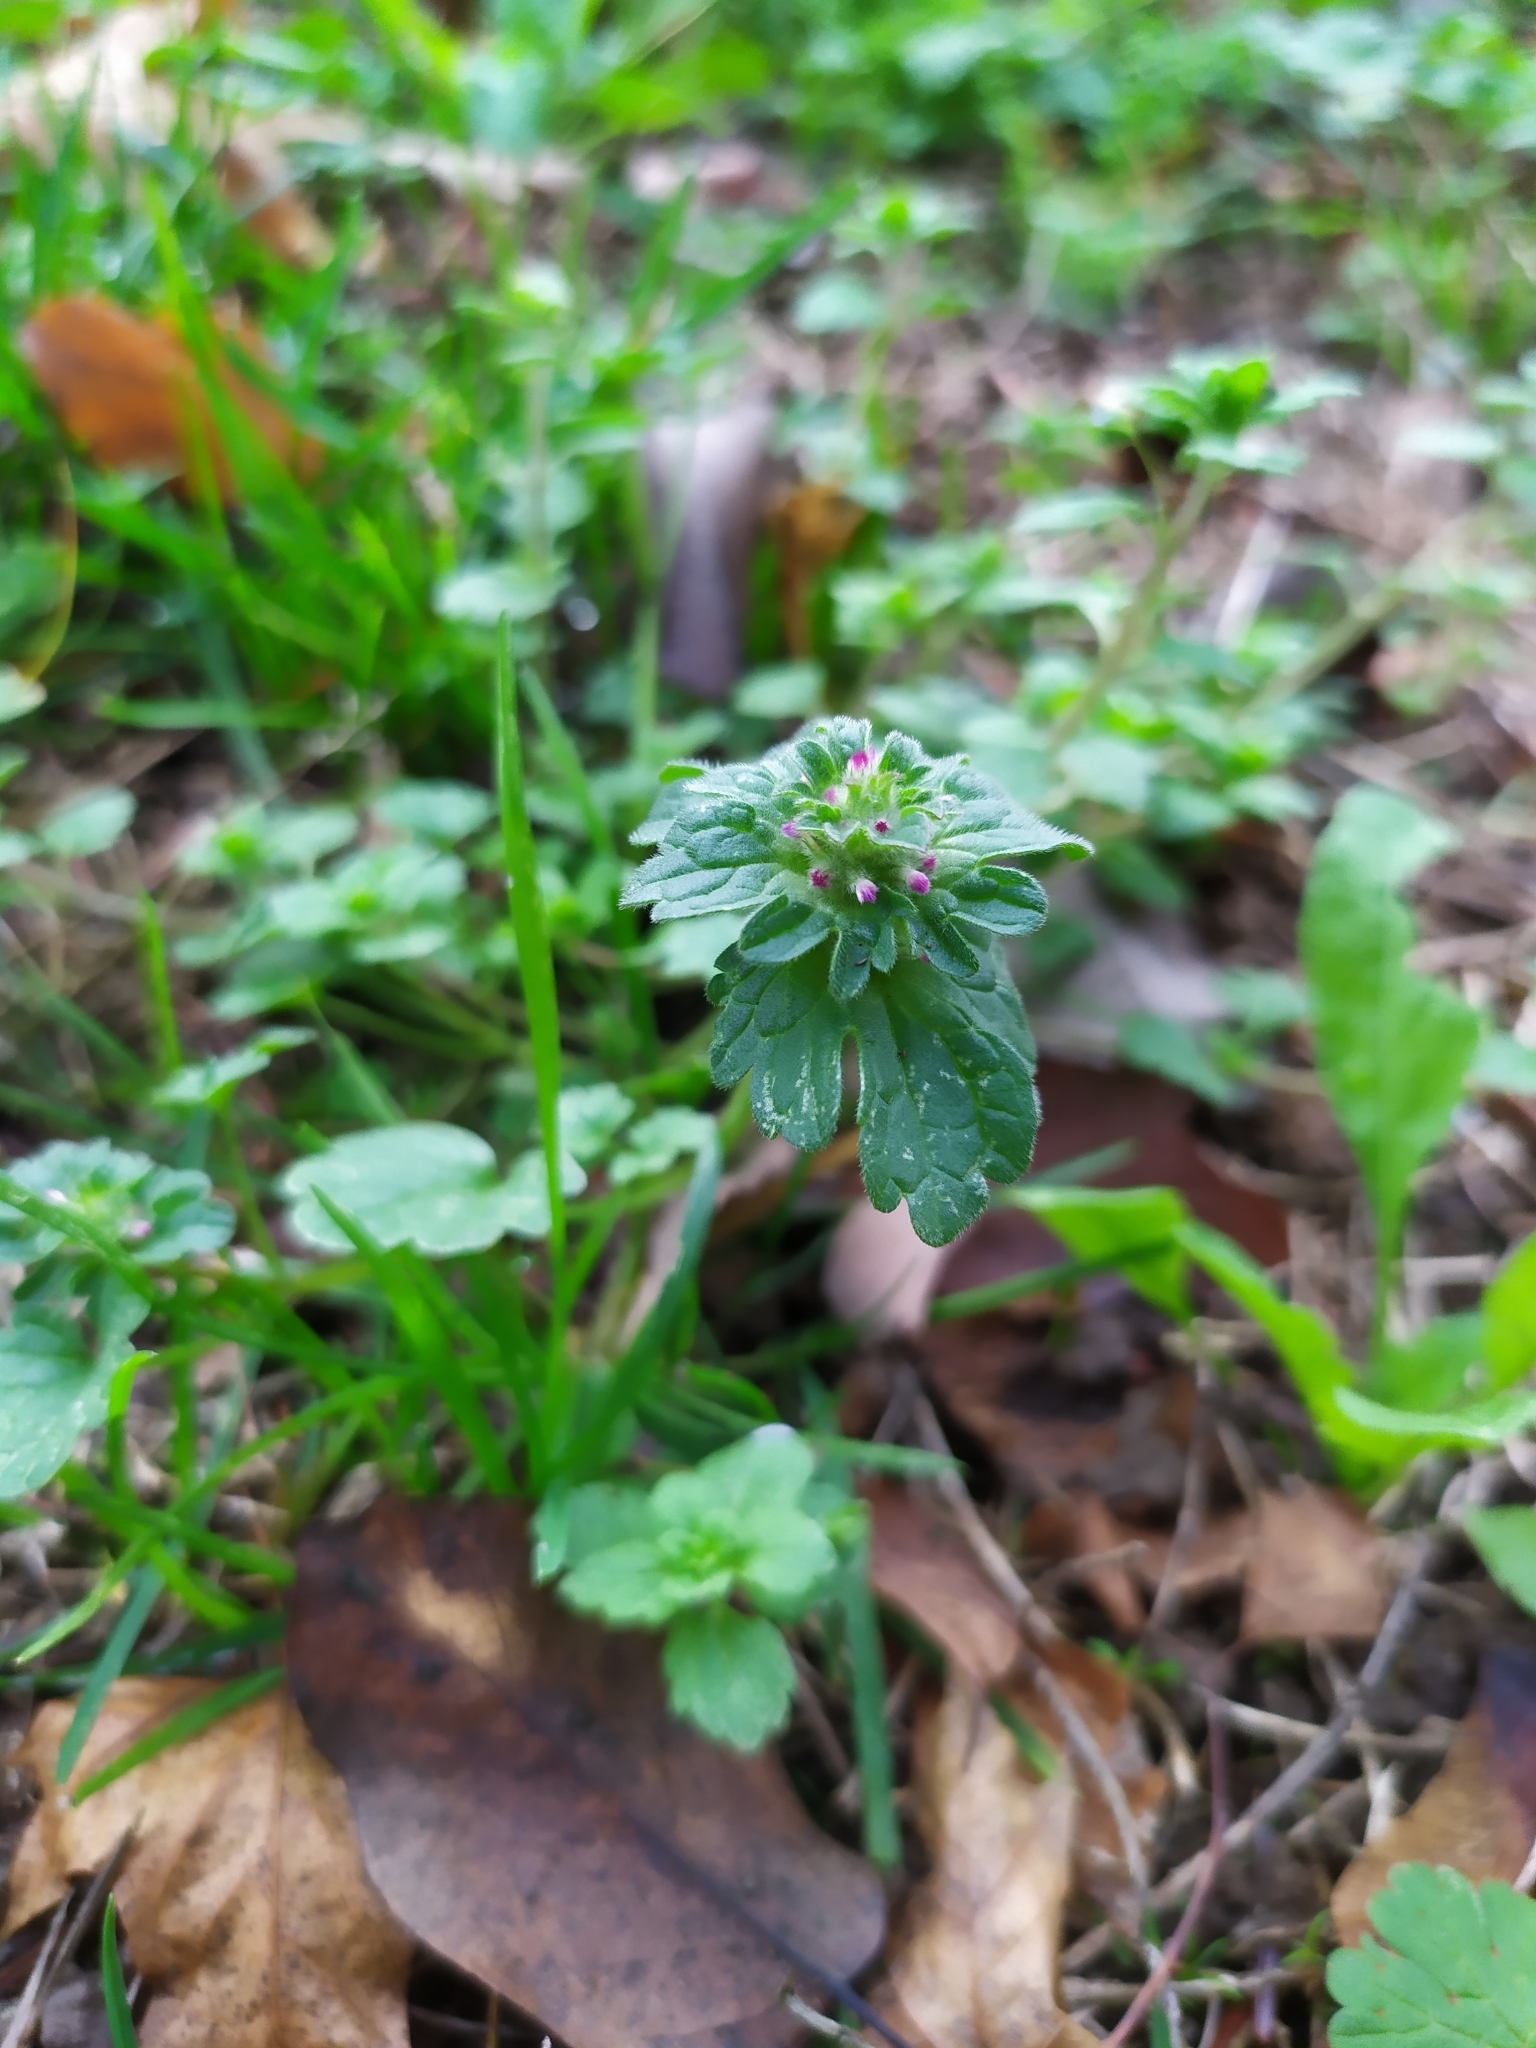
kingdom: Plantae
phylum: Tracheophyta
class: Magnoliopsida
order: Lamiales
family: Lamiaceae
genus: Lamium
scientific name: Lamium amplexicaule
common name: Henbit dead-nettle
